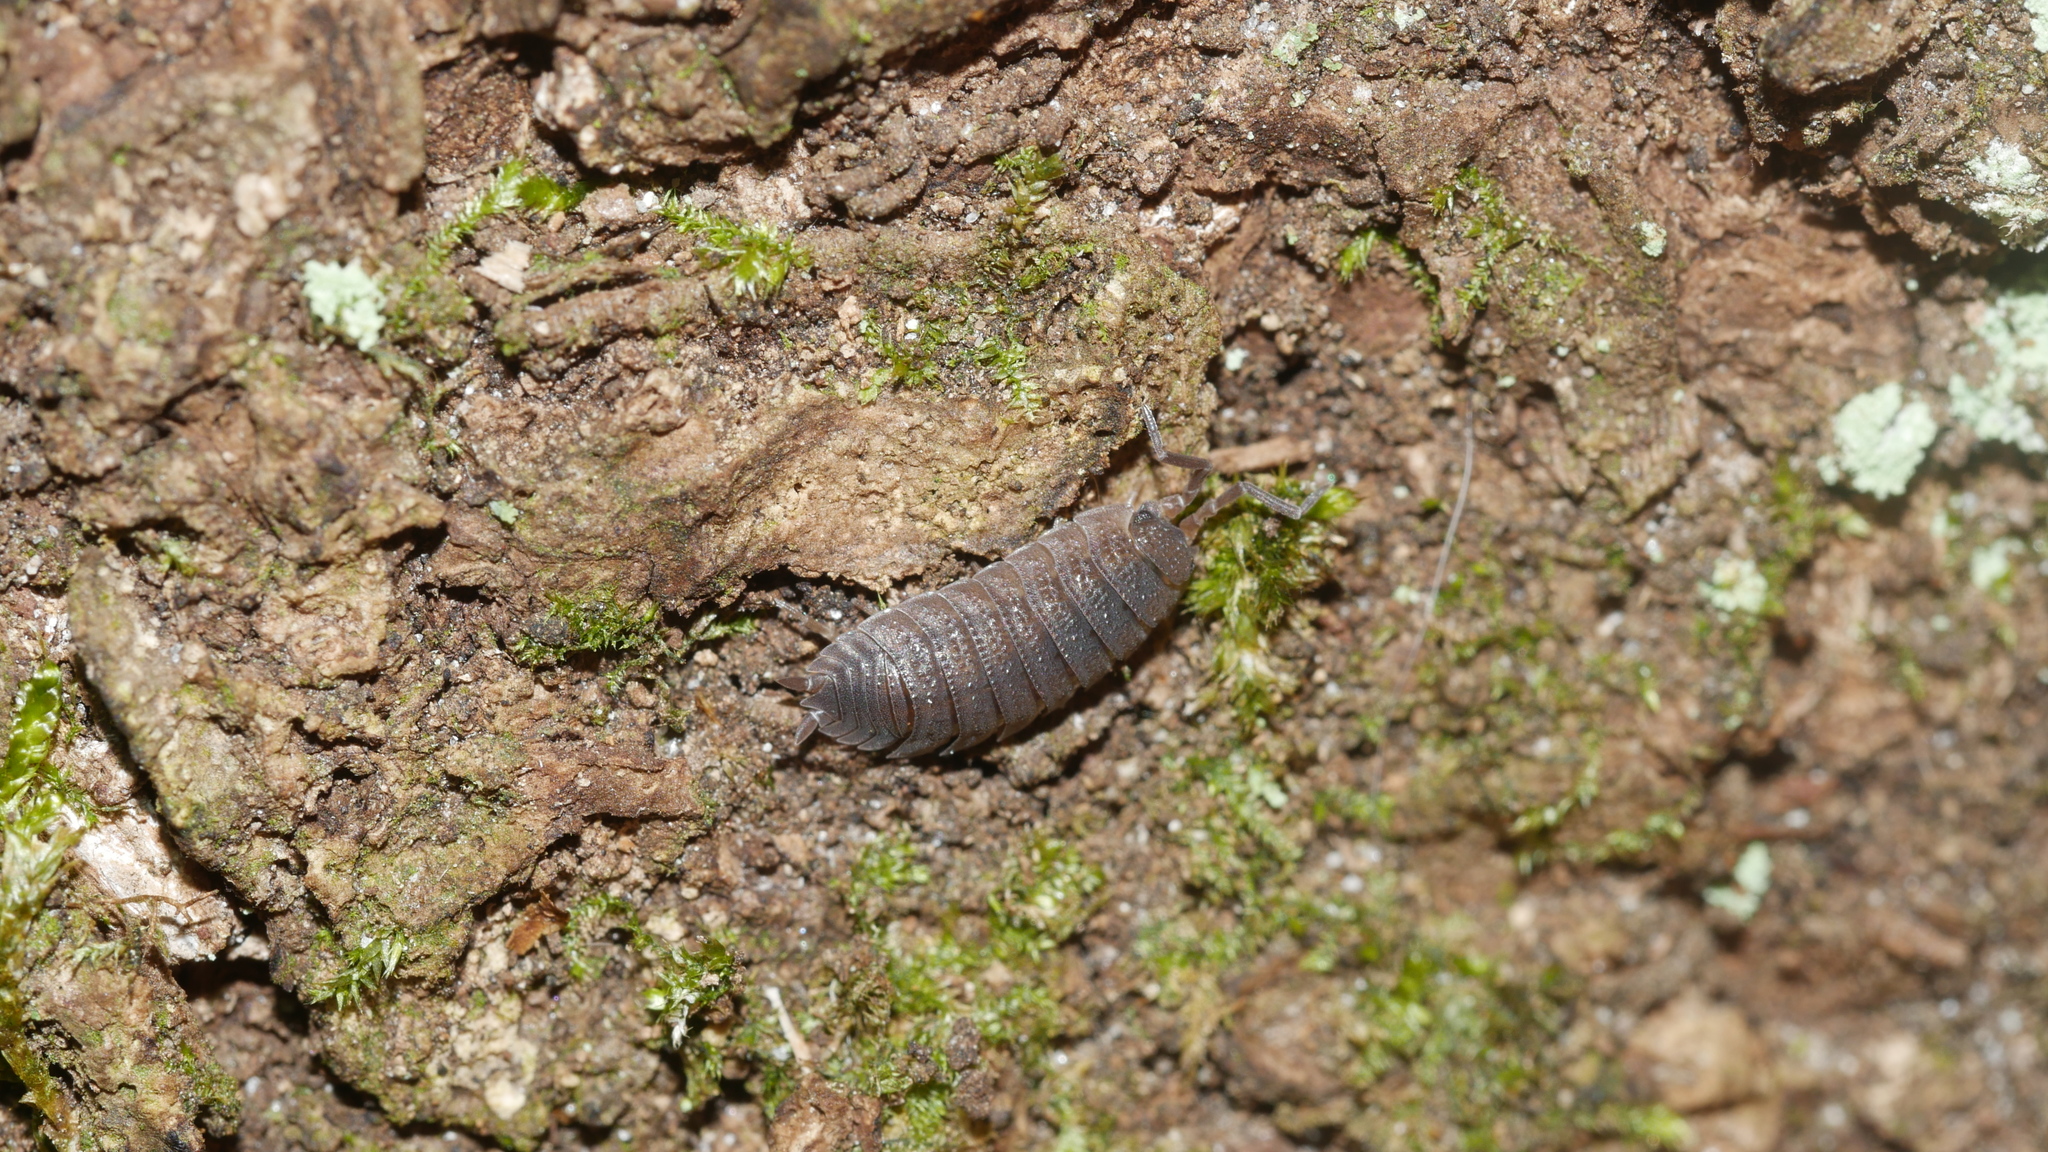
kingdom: Animalia
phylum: Arthropoda
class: Malacostraca
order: Isopoda
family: Porcellionidae
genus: Porcellio
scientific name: Porcellio scaber
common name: Common rough woodlouse
